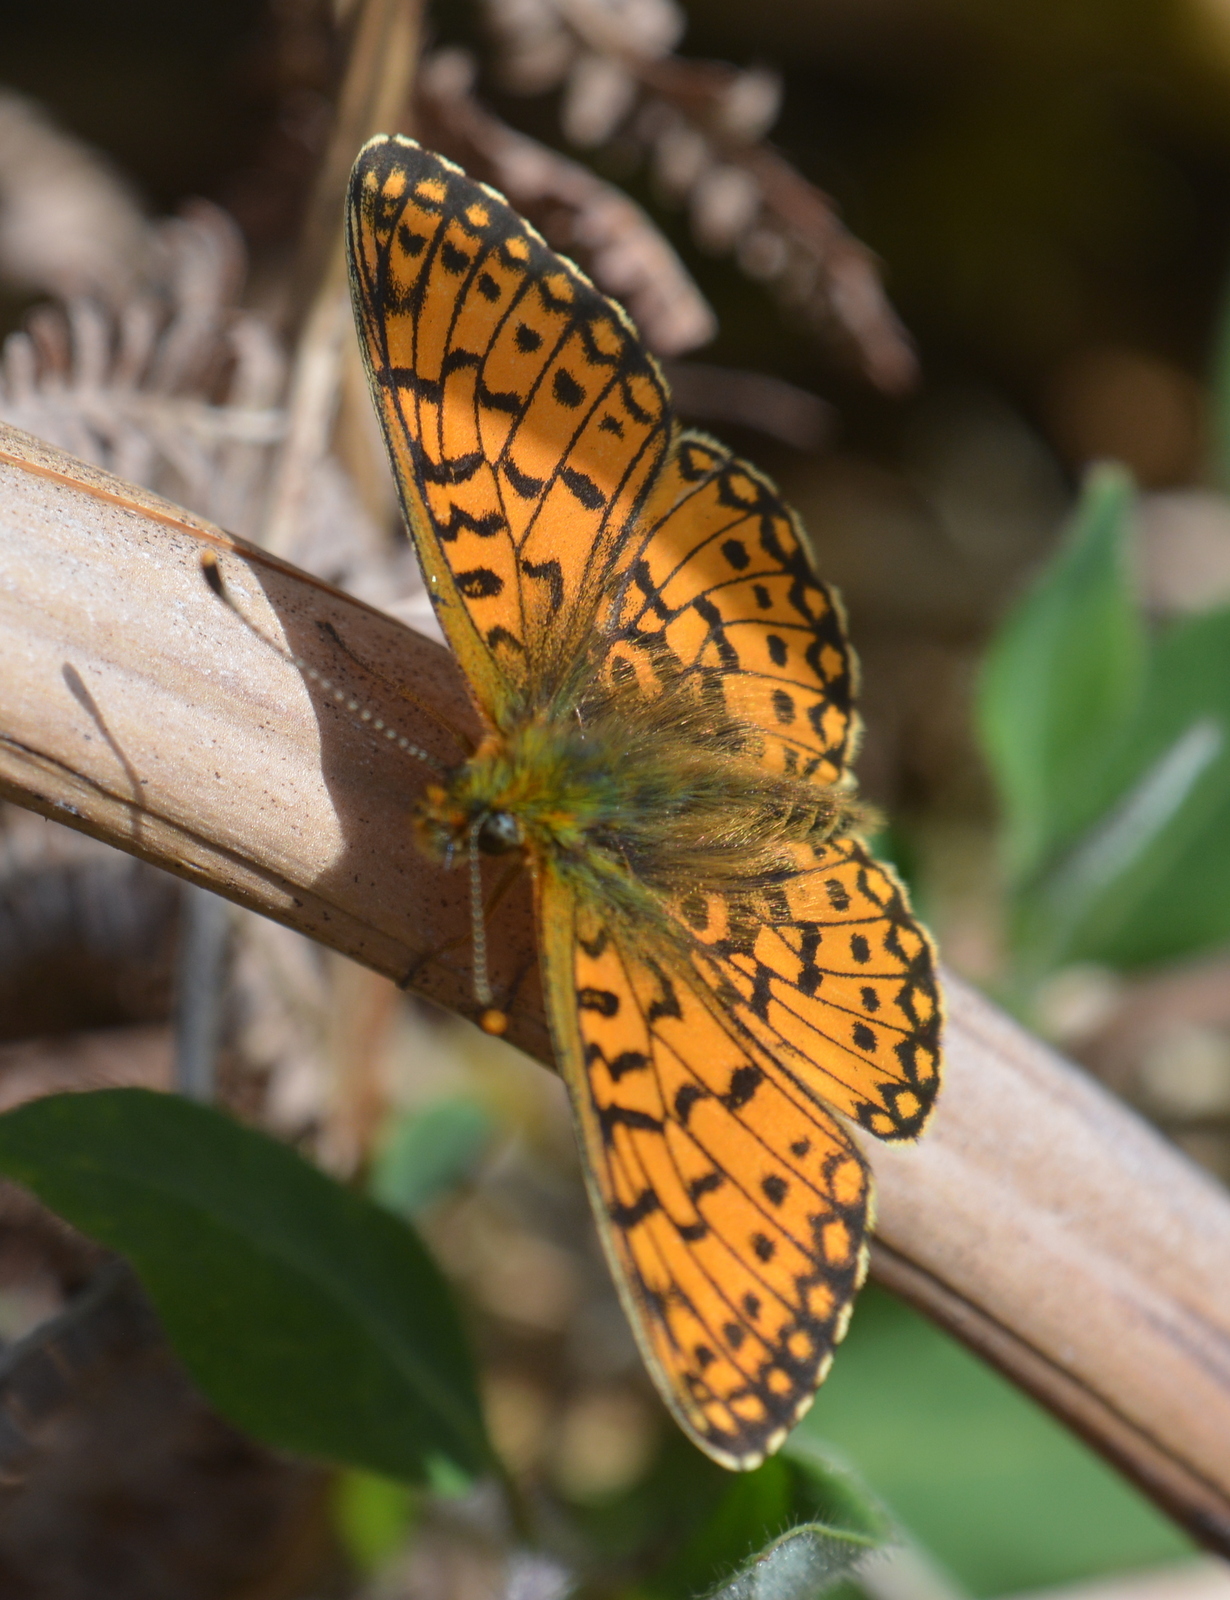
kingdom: Animalia
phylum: Arthropoda
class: Insecta
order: Lepidoptera
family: Nymphalidae
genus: Boloria
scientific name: Boloria selene
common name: Small pearl-bordered fritillary
